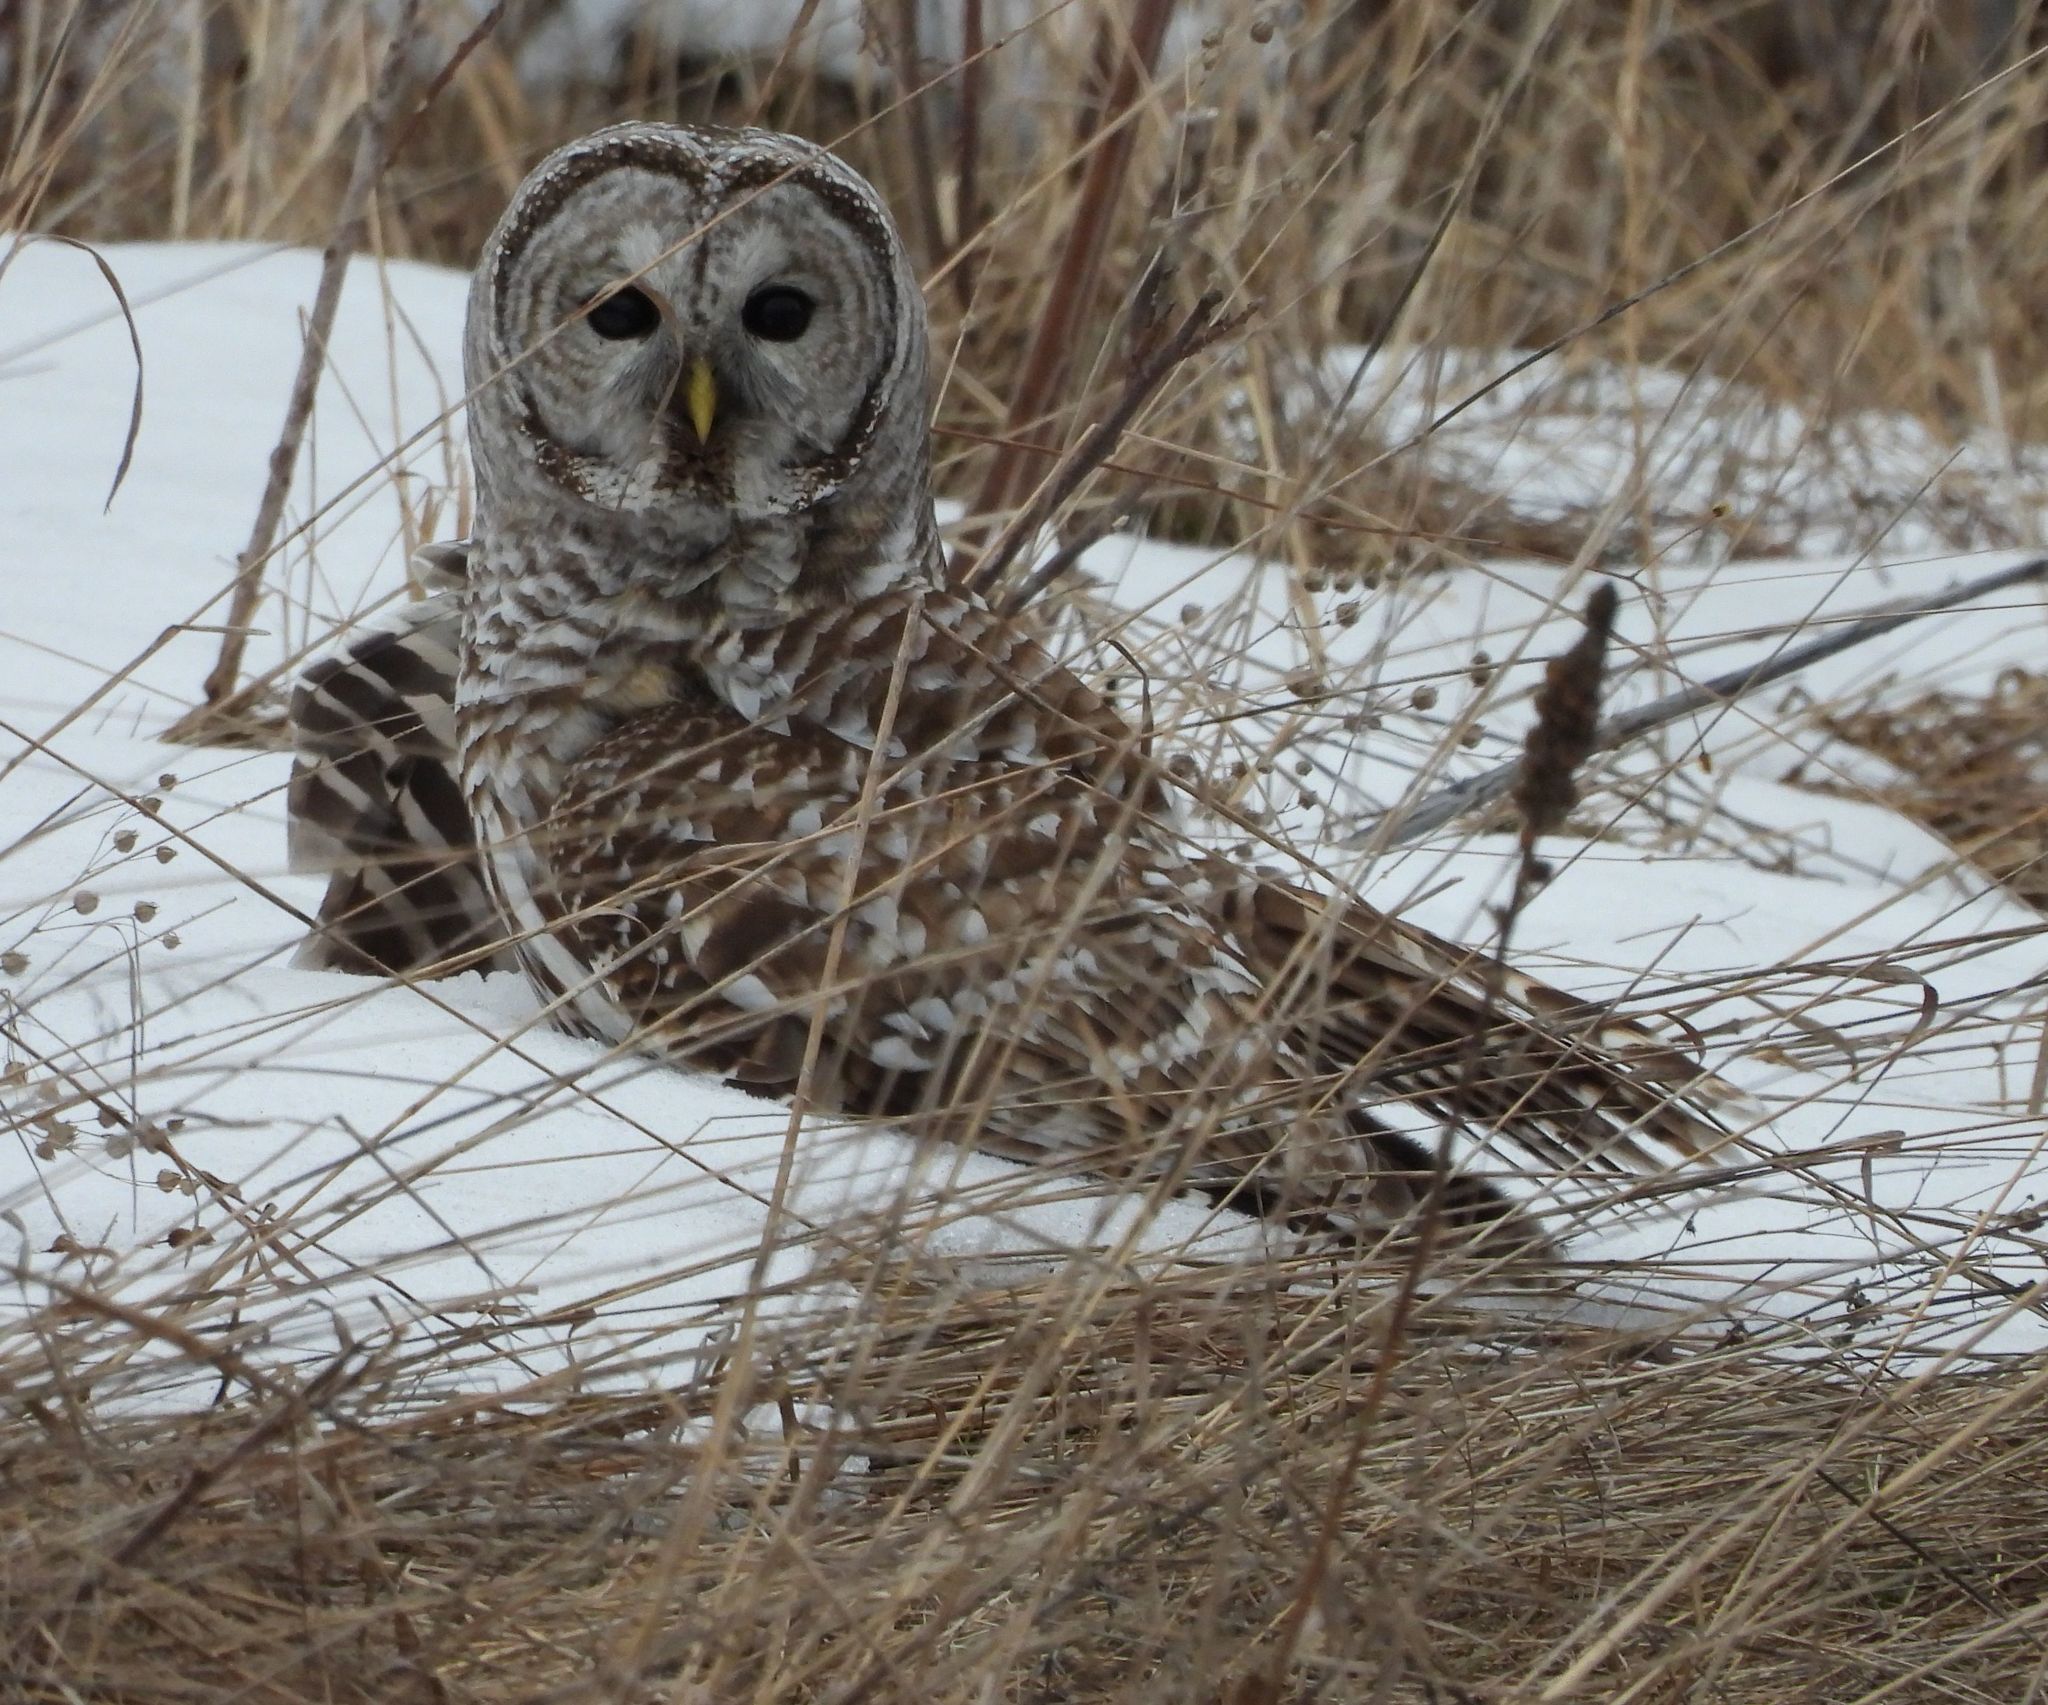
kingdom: Animalia
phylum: Chordata
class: Aves
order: Strigiformes
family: Strigidae
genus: Strix
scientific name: Strix varia
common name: Barred owl
